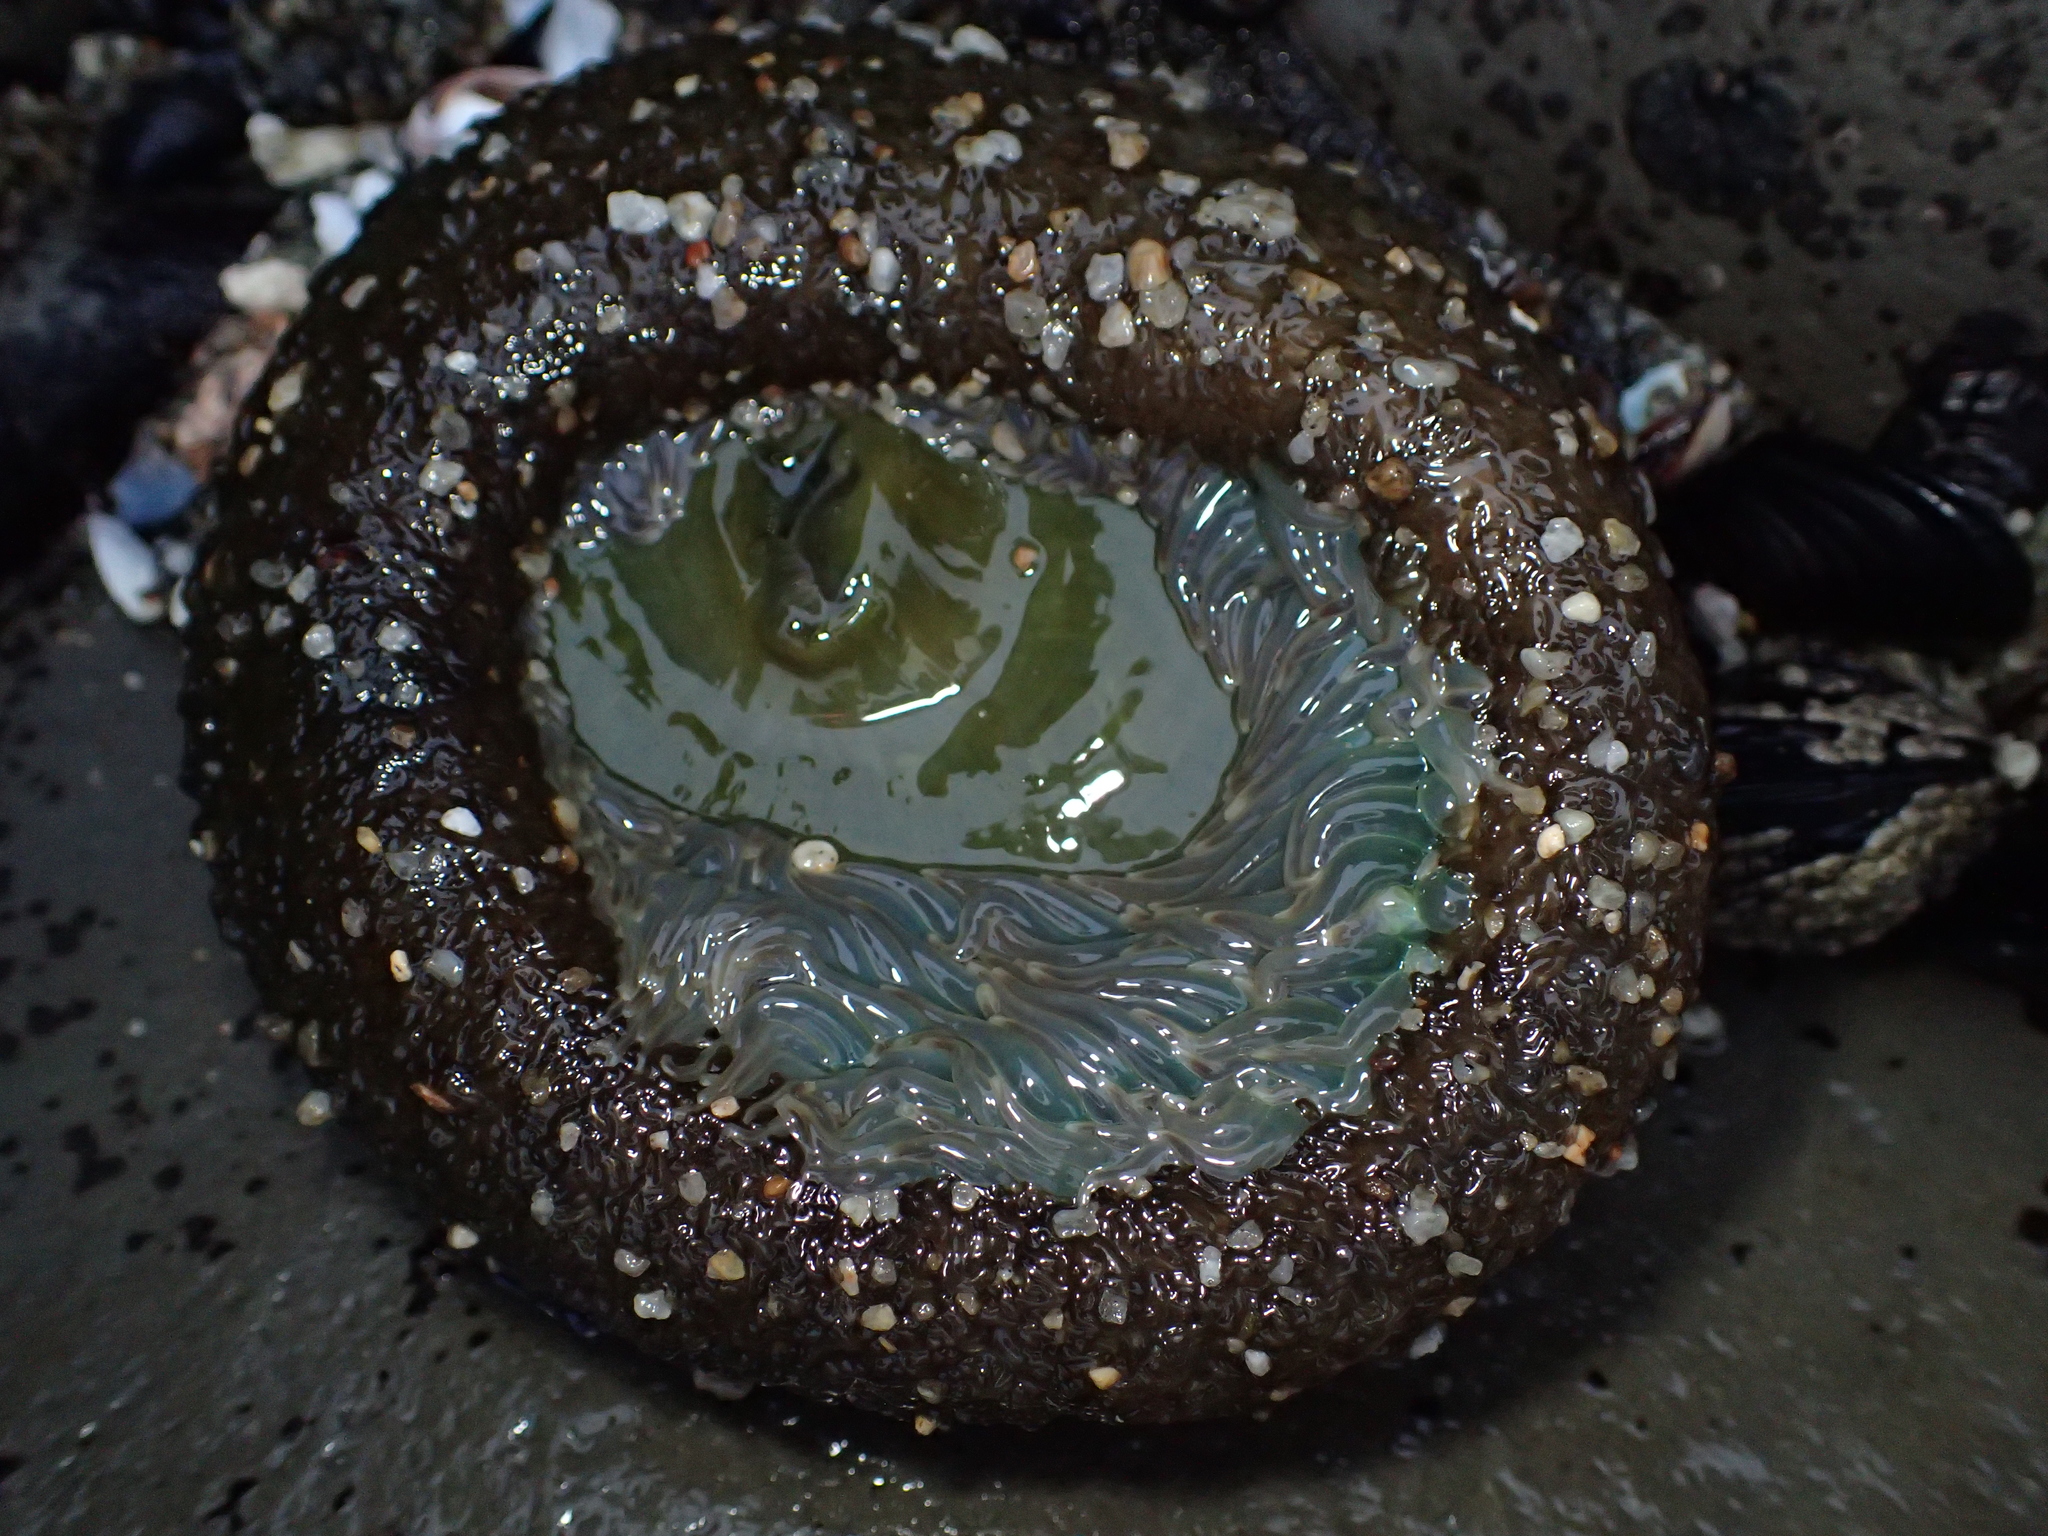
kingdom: Animalia
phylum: Cnidaria
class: Anthozoa
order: Actiniaria
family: Actiniidae
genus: Anthopleura
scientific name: Anthopleura xanthogrammica
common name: Giant green anemone
